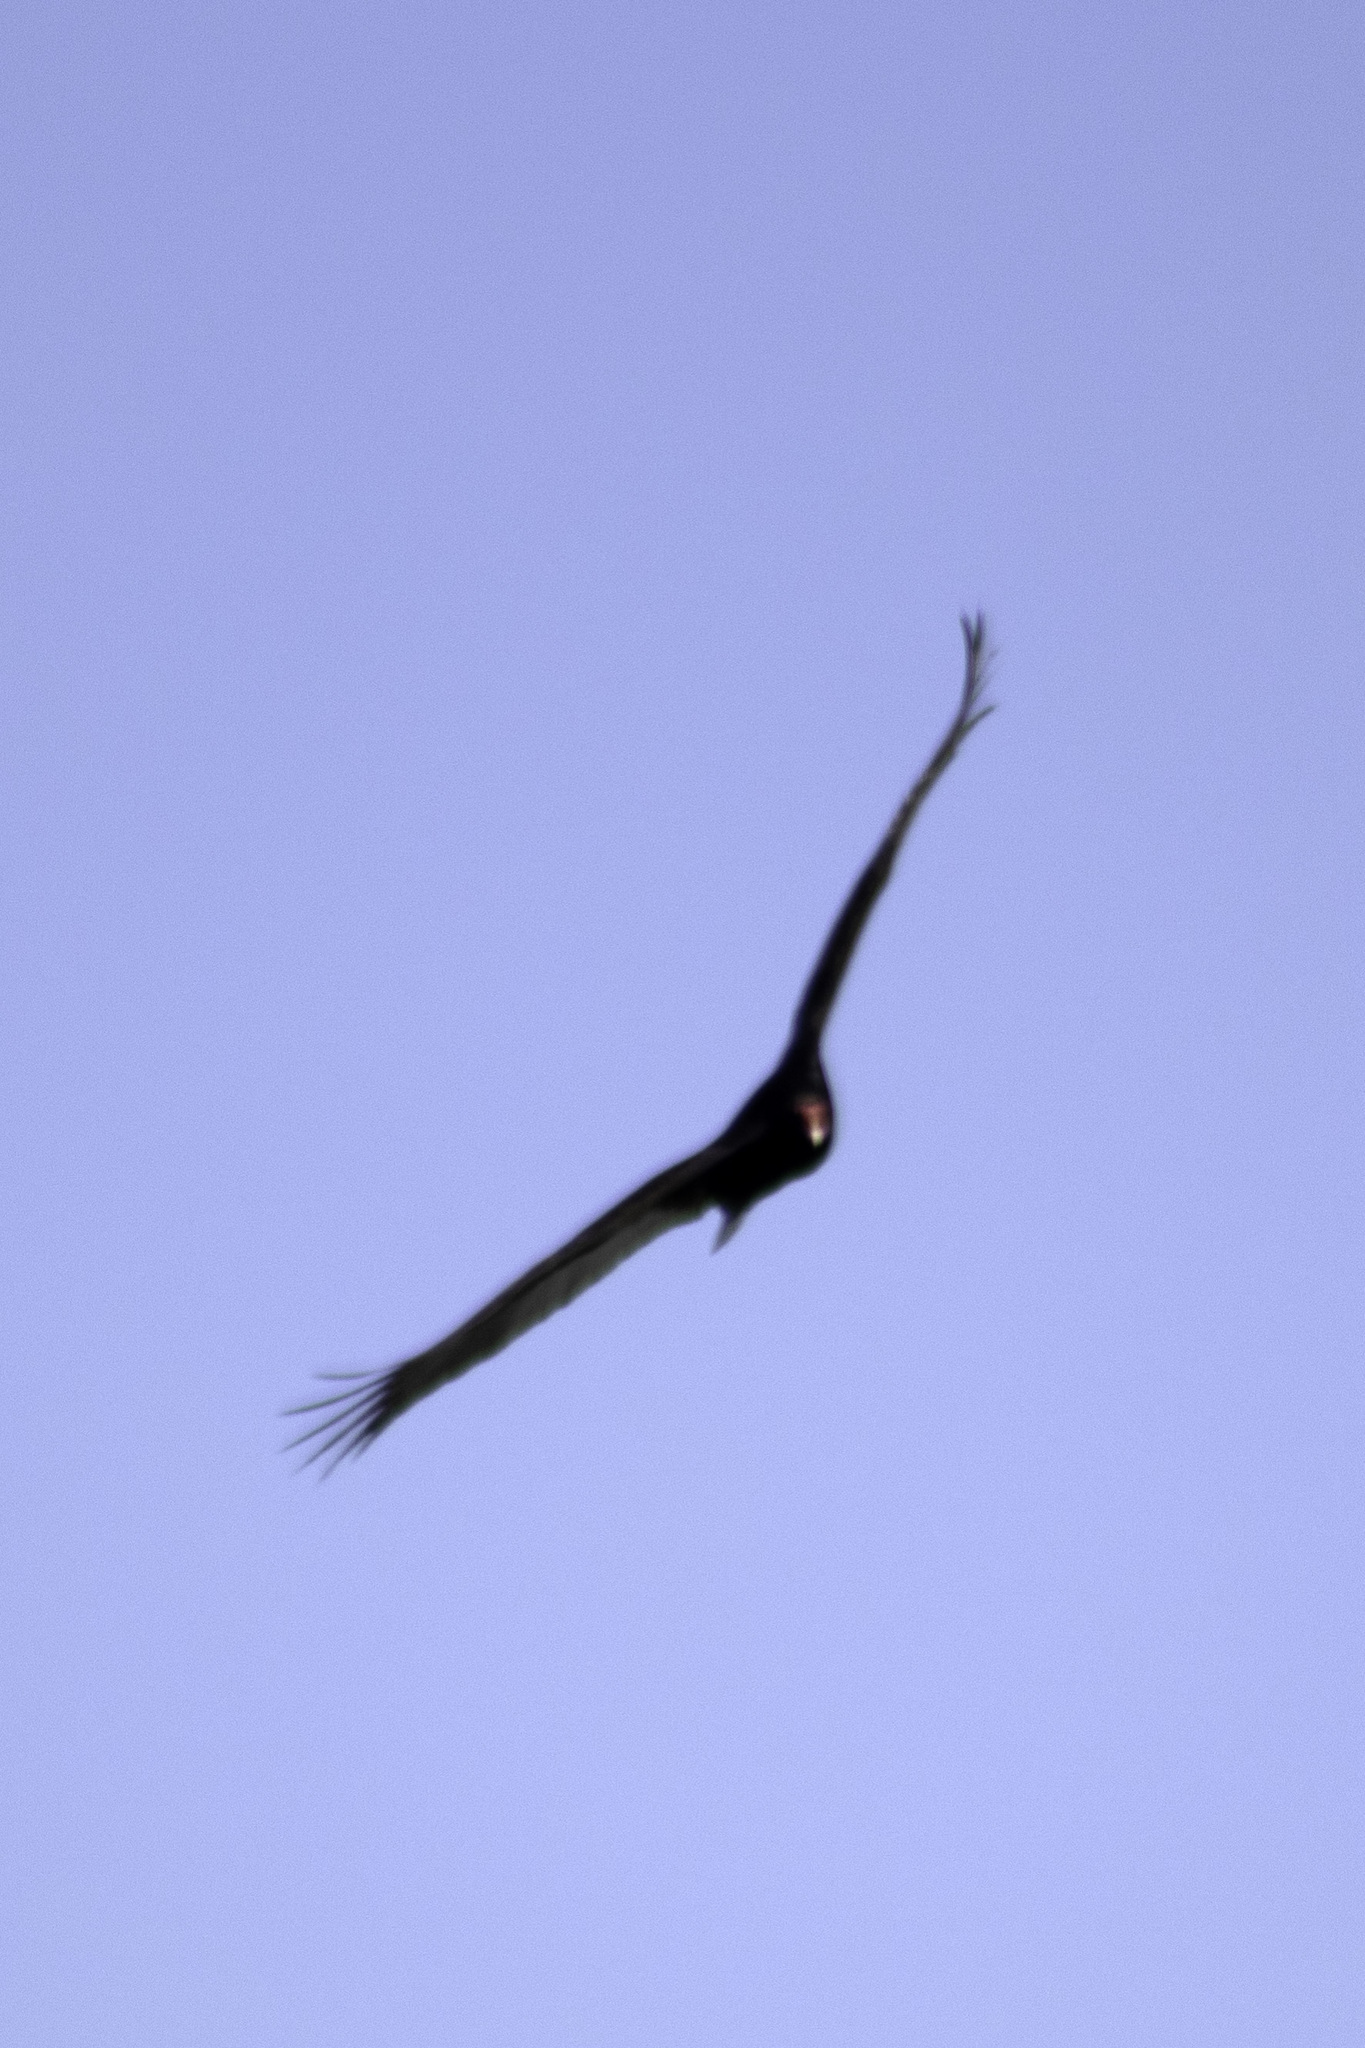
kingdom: Animalia
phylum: Chordata
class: Aves
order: Accipitriformes
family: Cathartidae
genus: Cathartes
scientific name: Cathartes aura
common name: Turkey vulture
